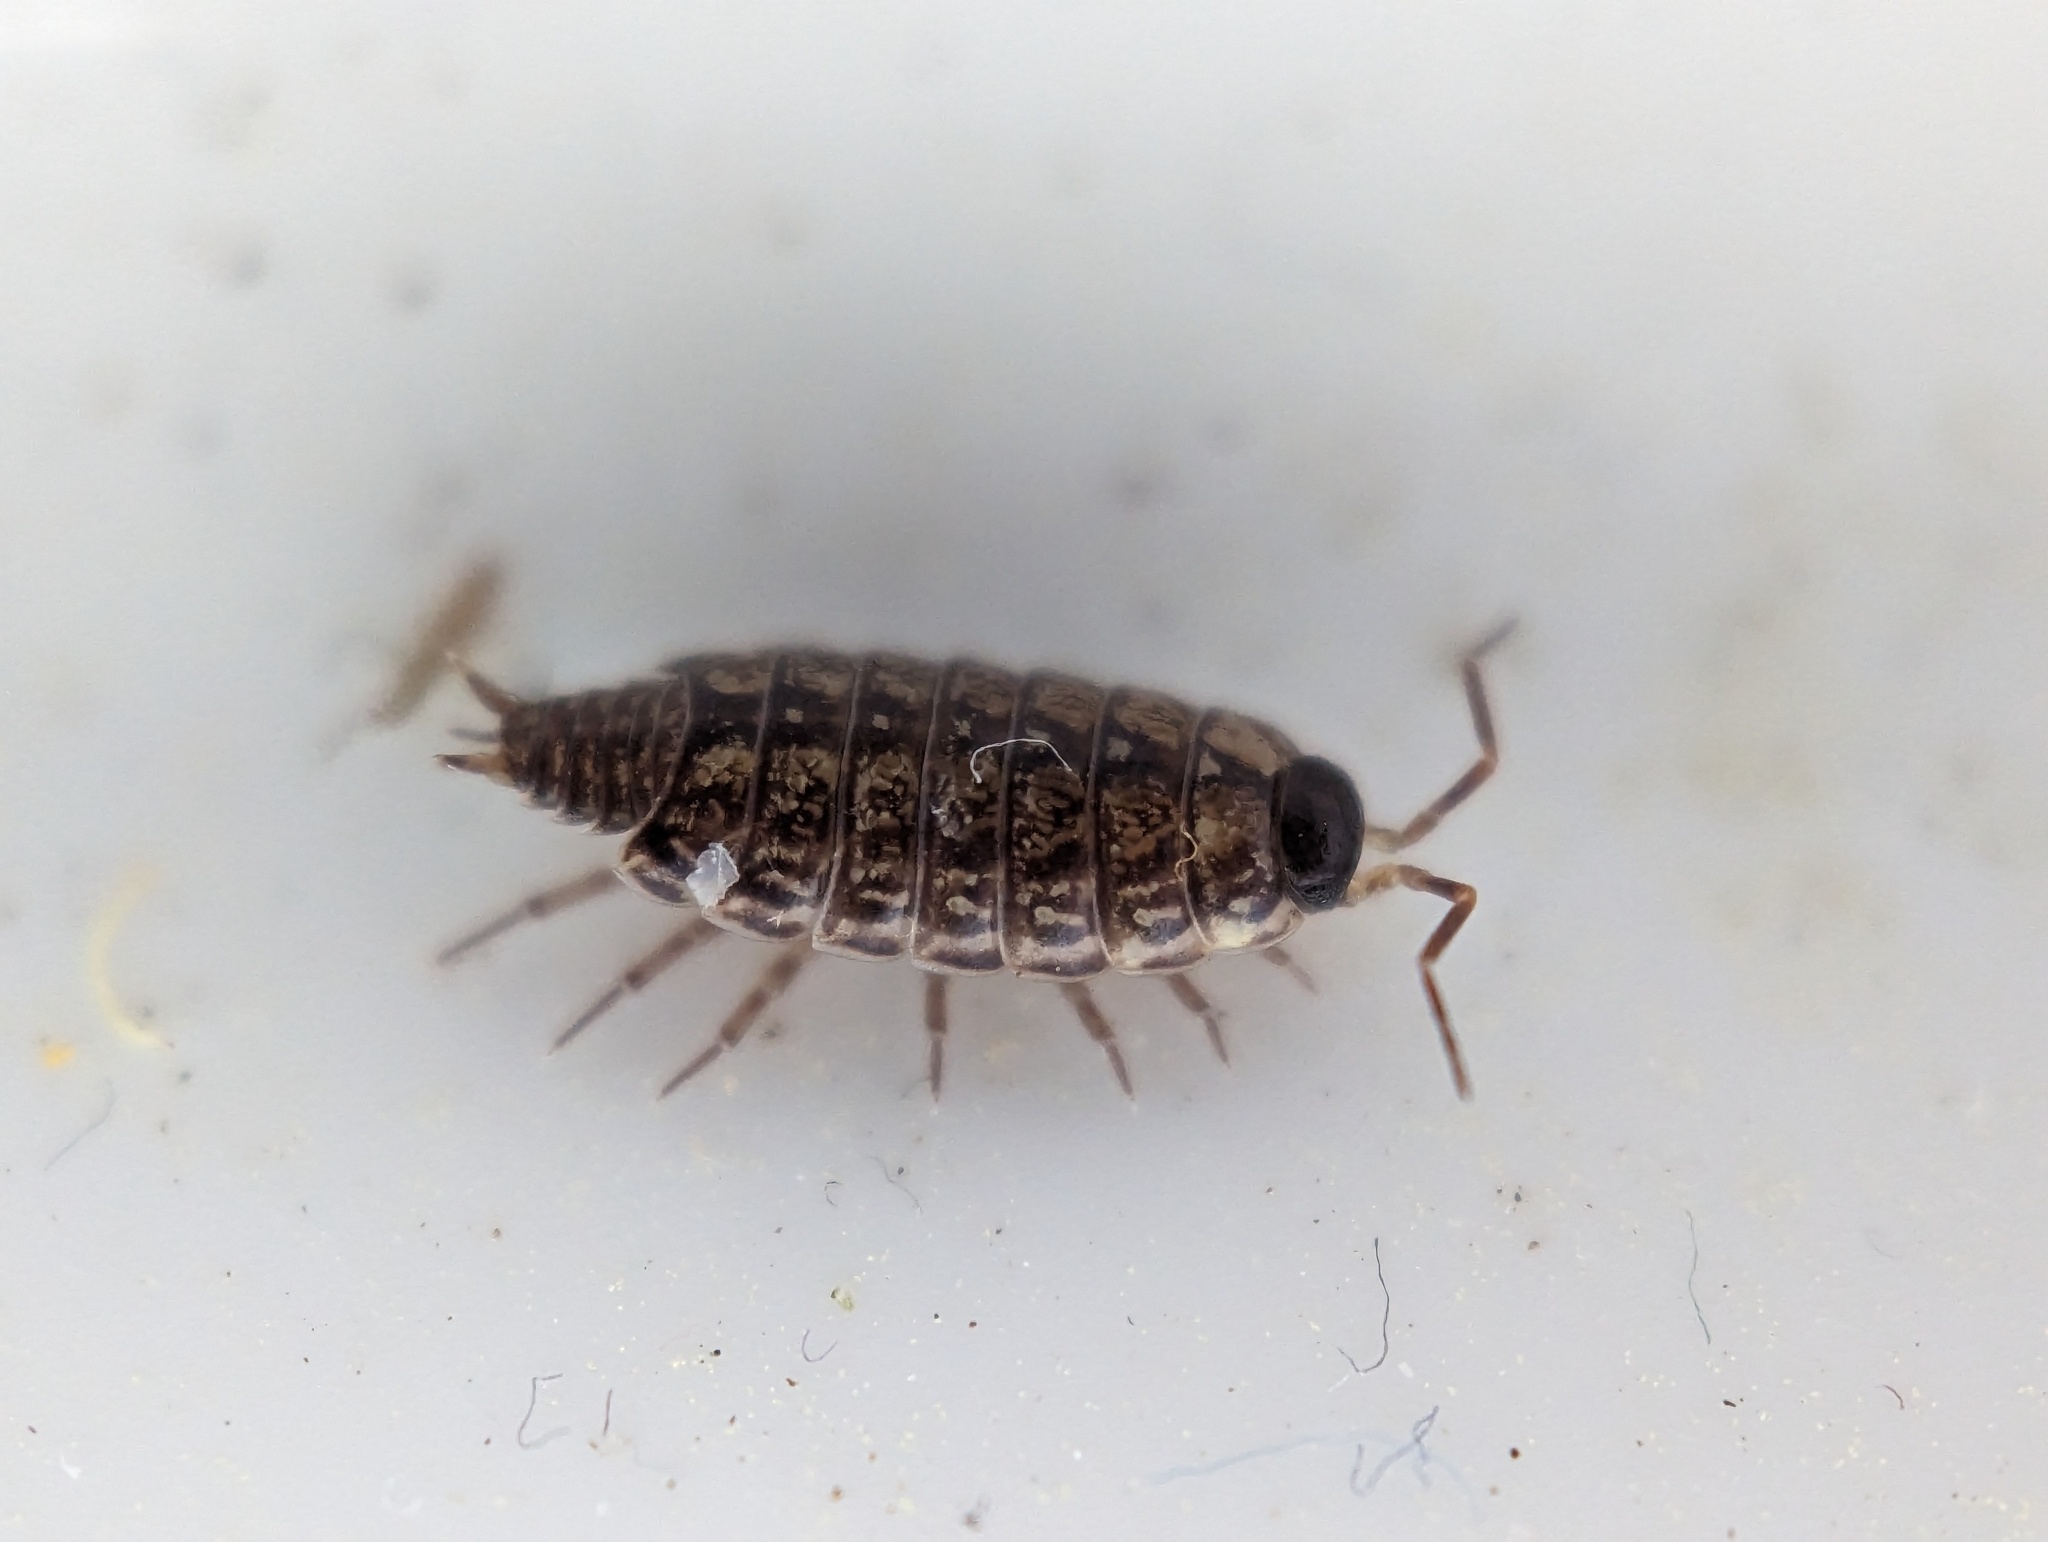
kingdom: Animalia
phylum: Arthropoda
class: Malacostraca
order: Isopoda
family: Philosciidae
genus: Philoscia
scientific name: Philoscia muscorum
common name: Common striped woodlouse
